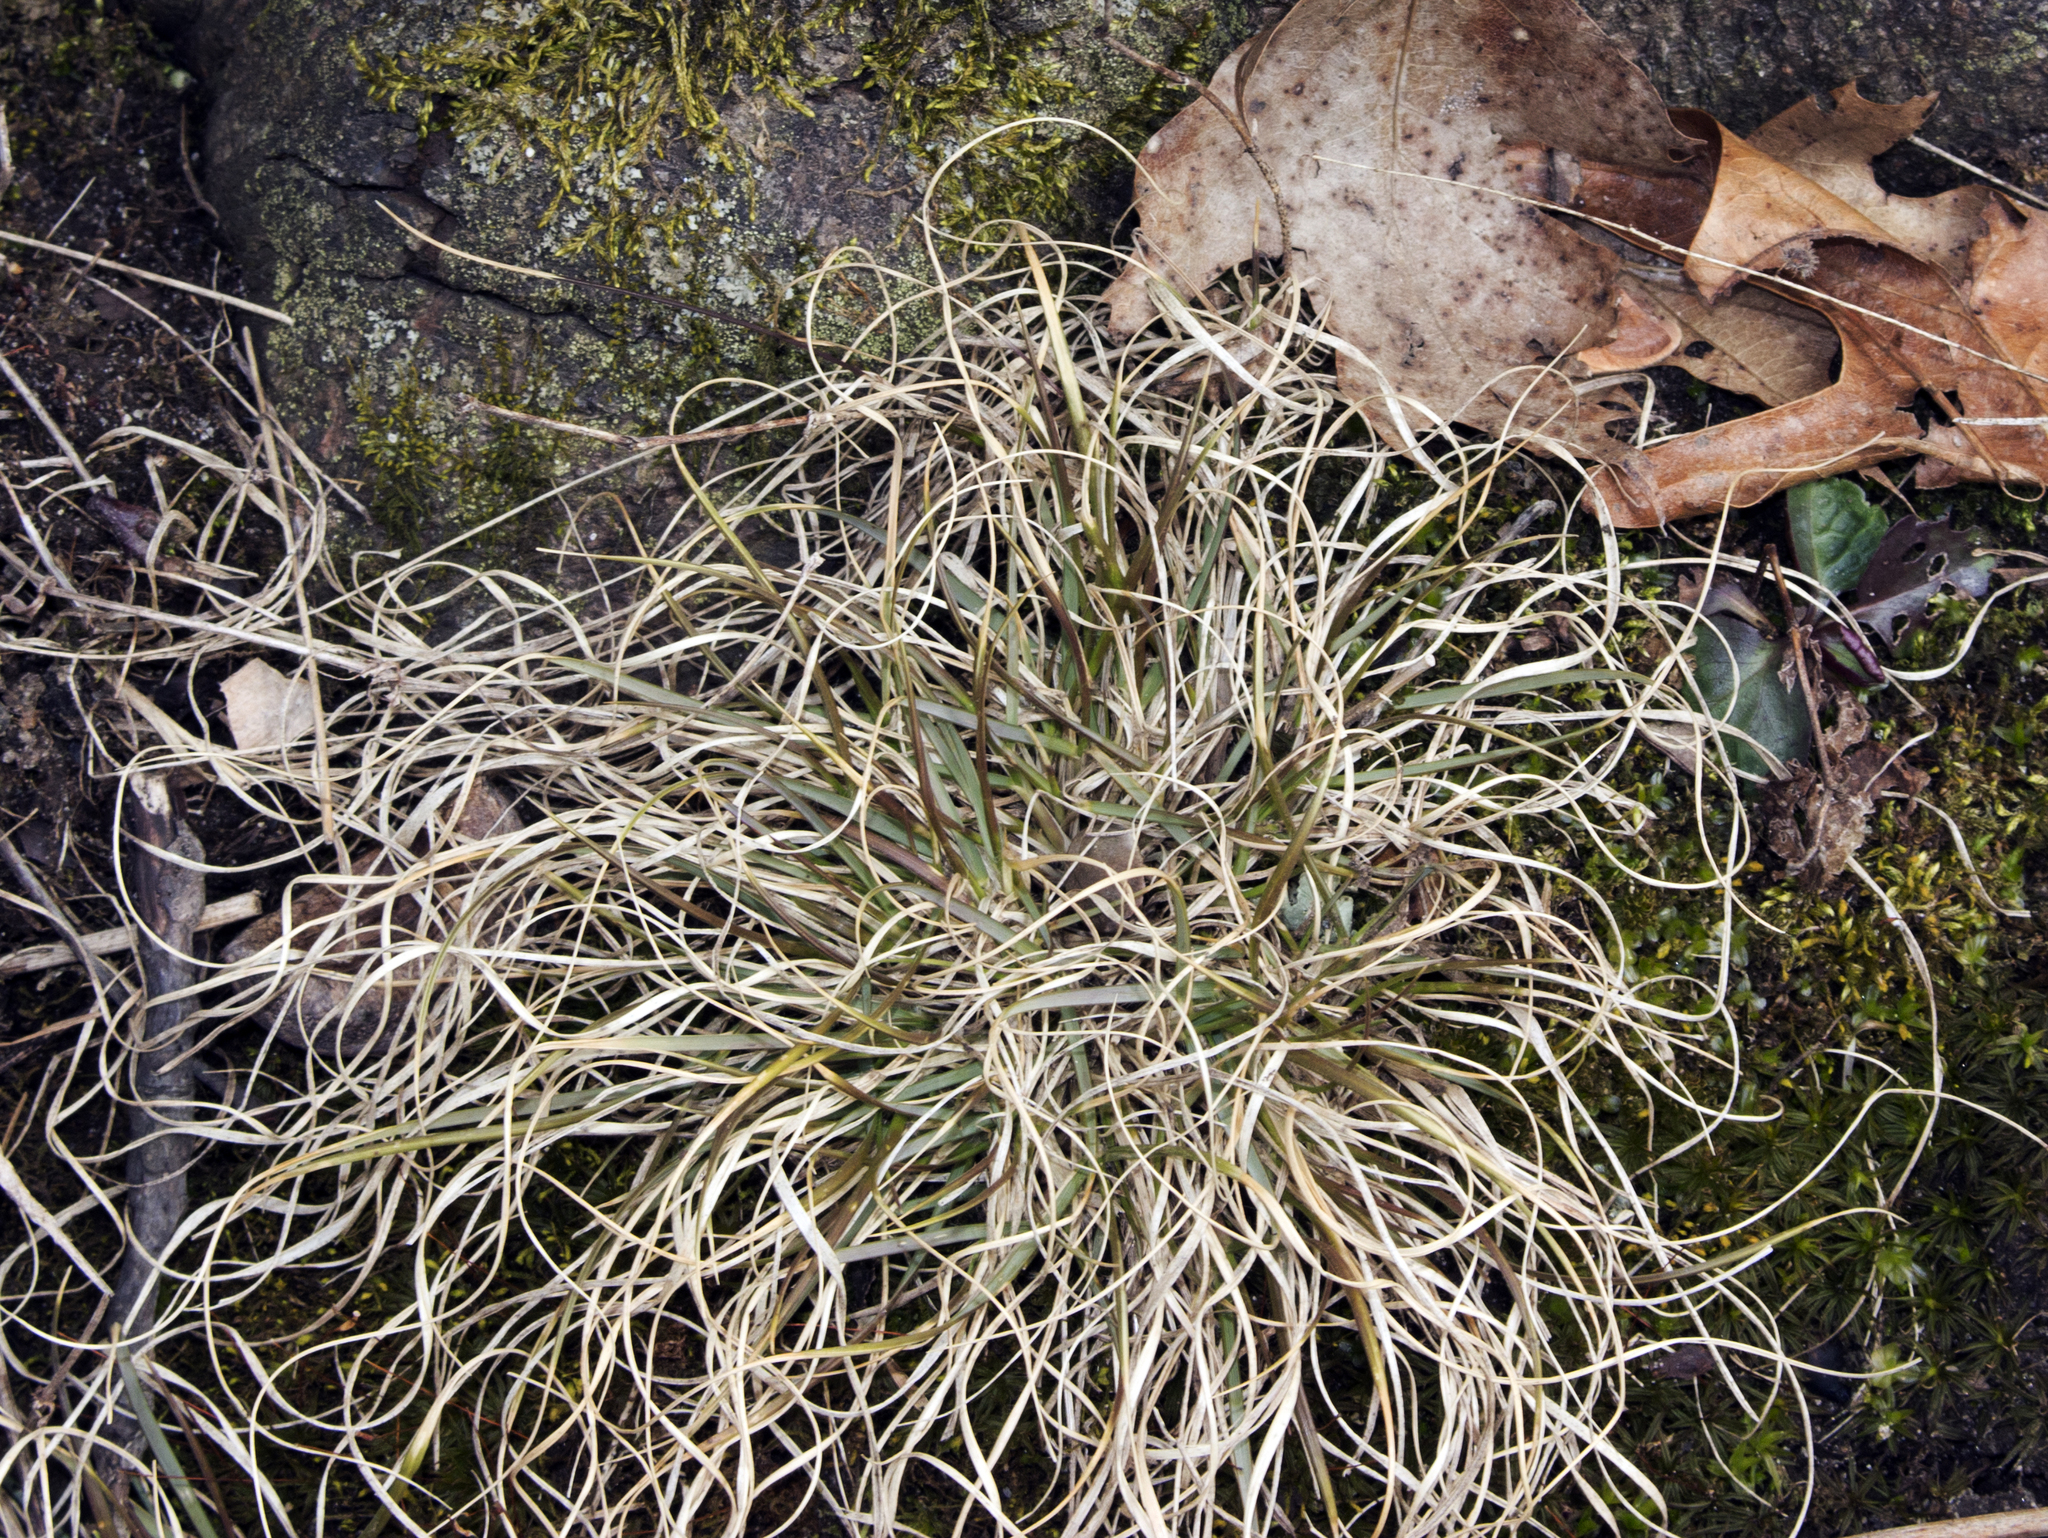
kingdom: Plantae
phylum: Tracheophyta
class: Liliopsida
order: Poales
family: Poaceae
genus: Danthonia
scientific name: Danthonia spicata
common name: Common wild oatgrass
